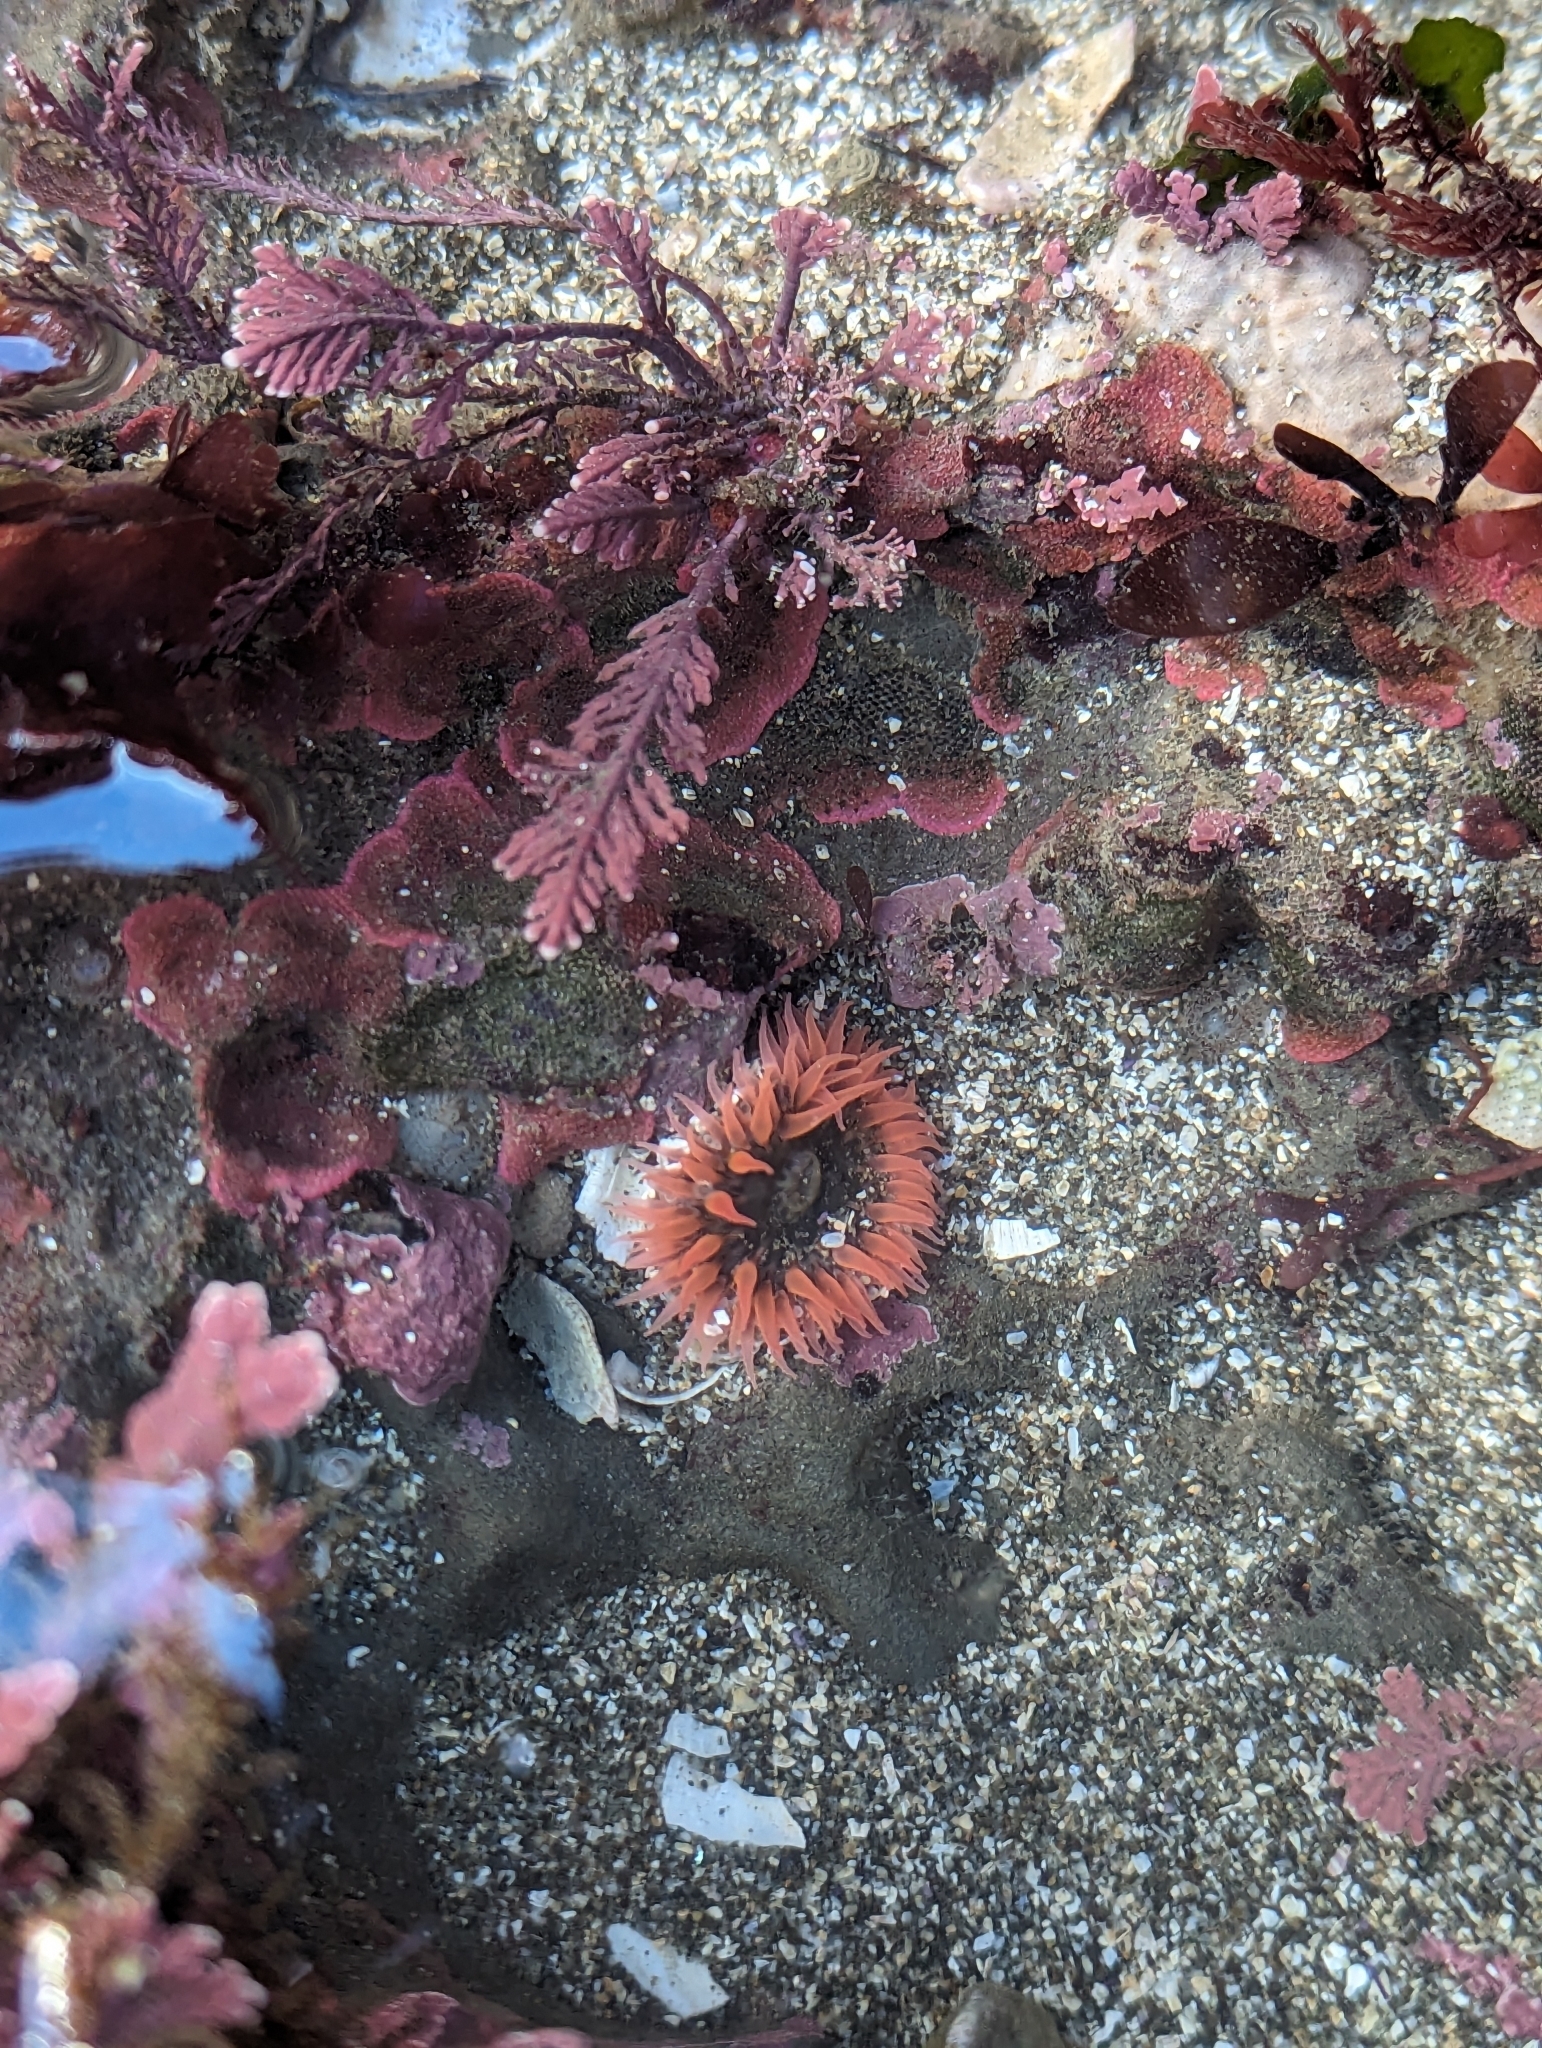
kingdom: Animalia
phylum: Cnidaria
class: Anthozoa
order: Actiniaria
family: Actiniidae
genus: Anthopleura
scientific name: Anthopleura artemisia
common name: Buried sea anemone
